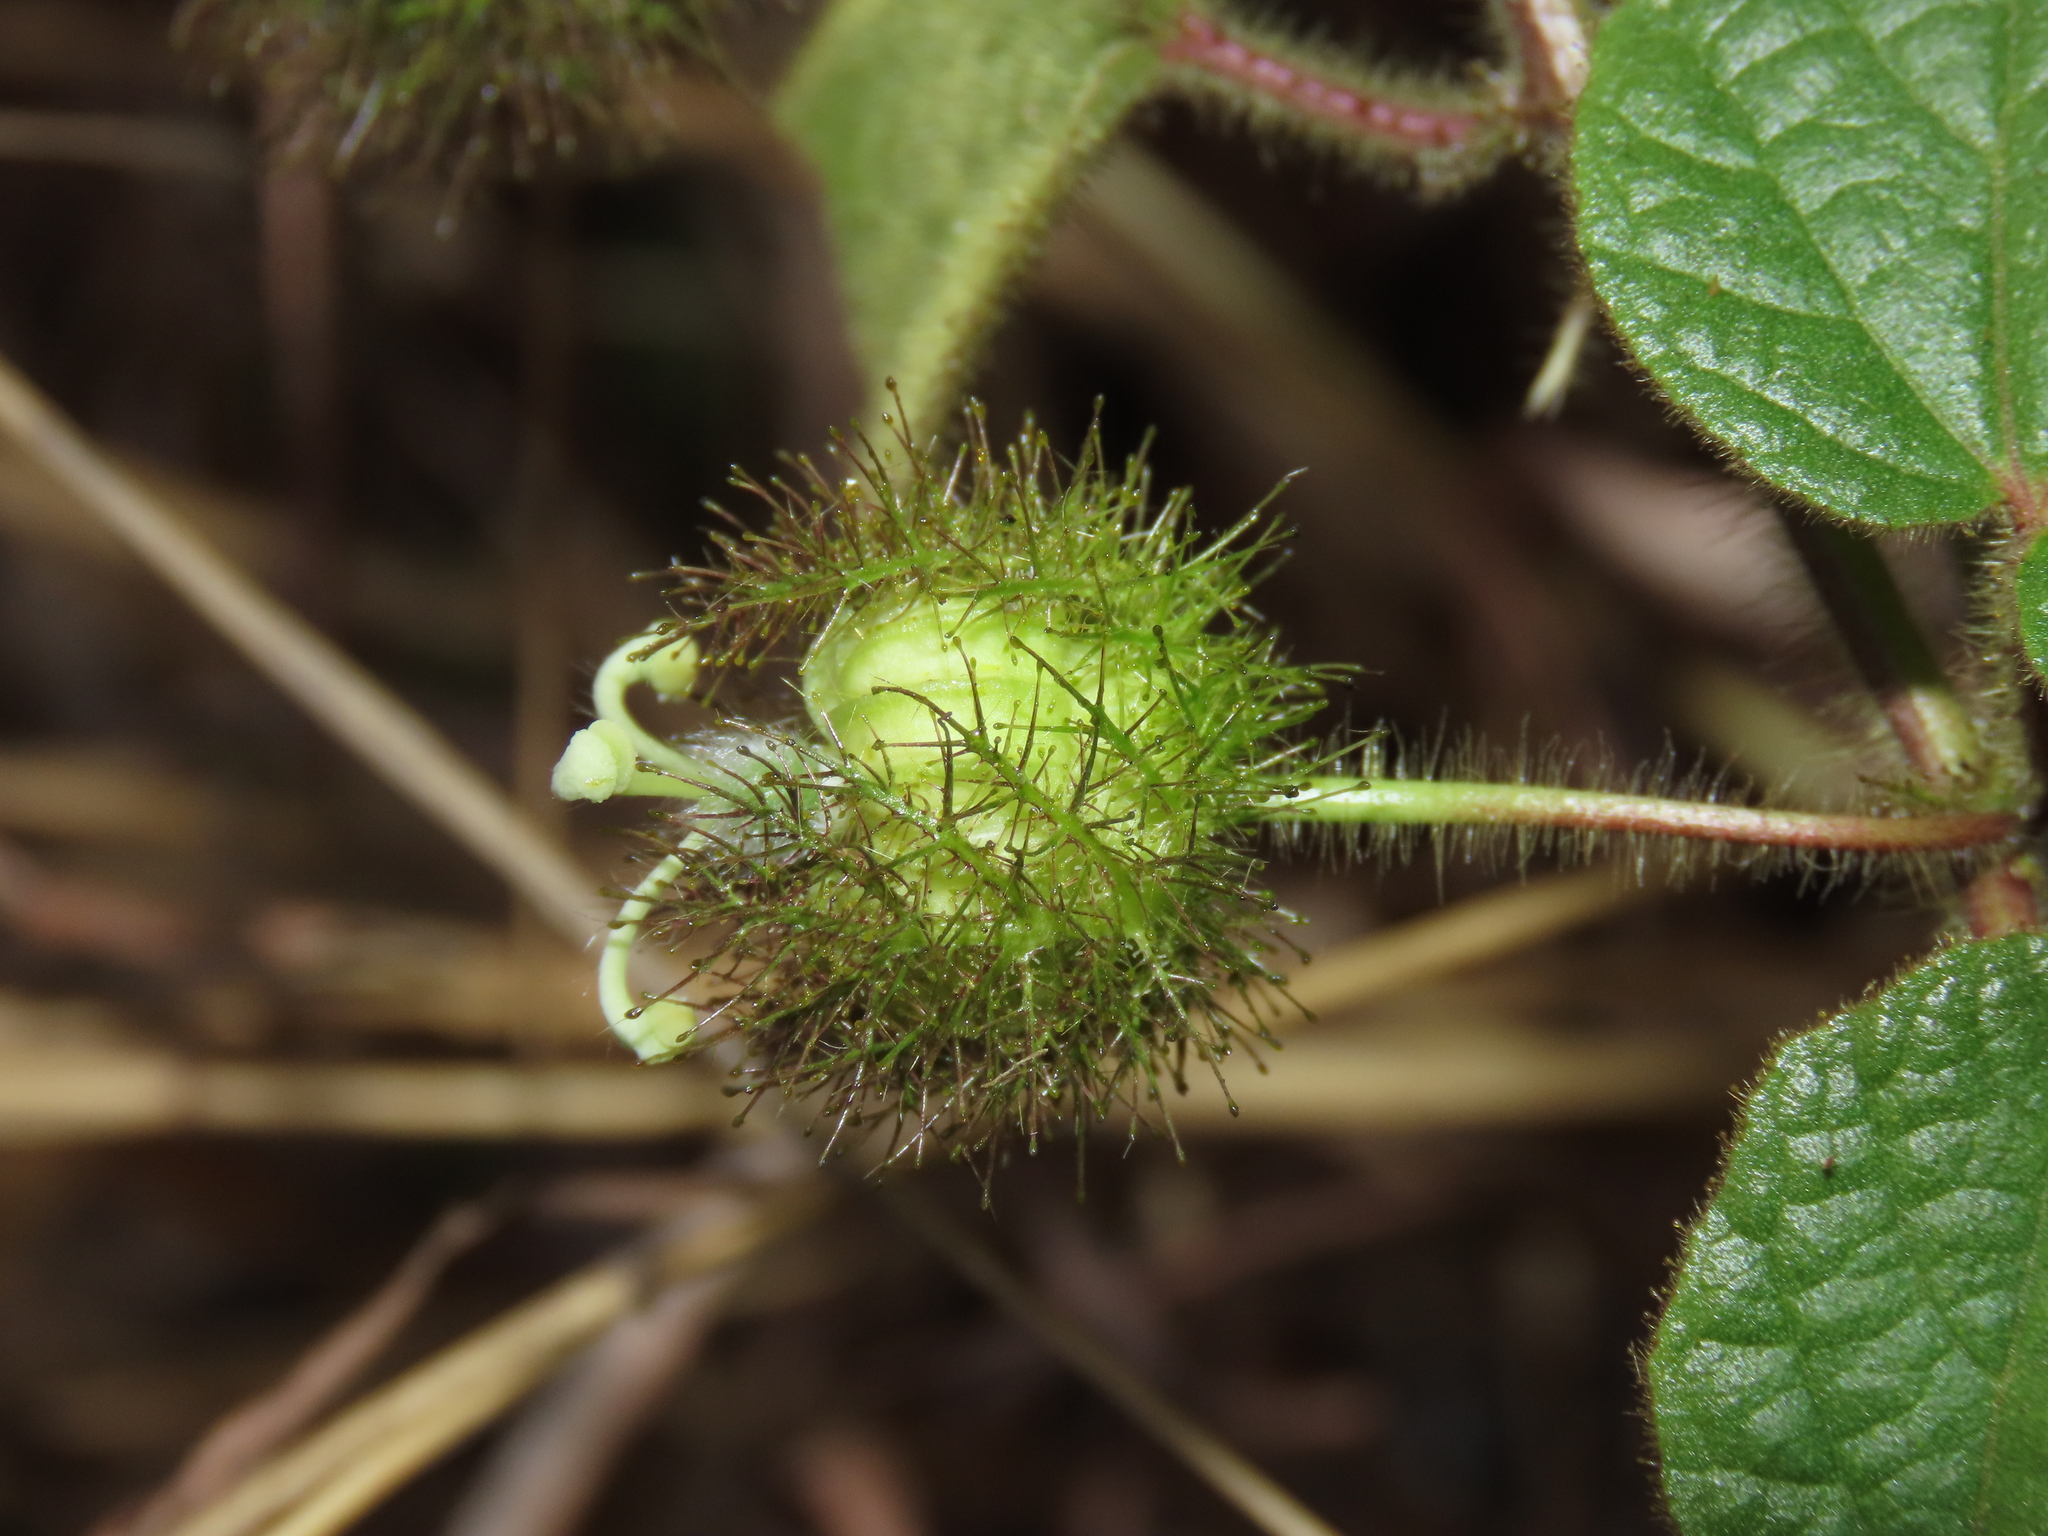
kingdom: Plantae
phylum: Tracheophyta
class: Magnoliopsida
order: Malpighiales
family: Passifloraceae
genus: Passiflora
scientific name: Passiflora foetida
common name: Fetid passionflower
